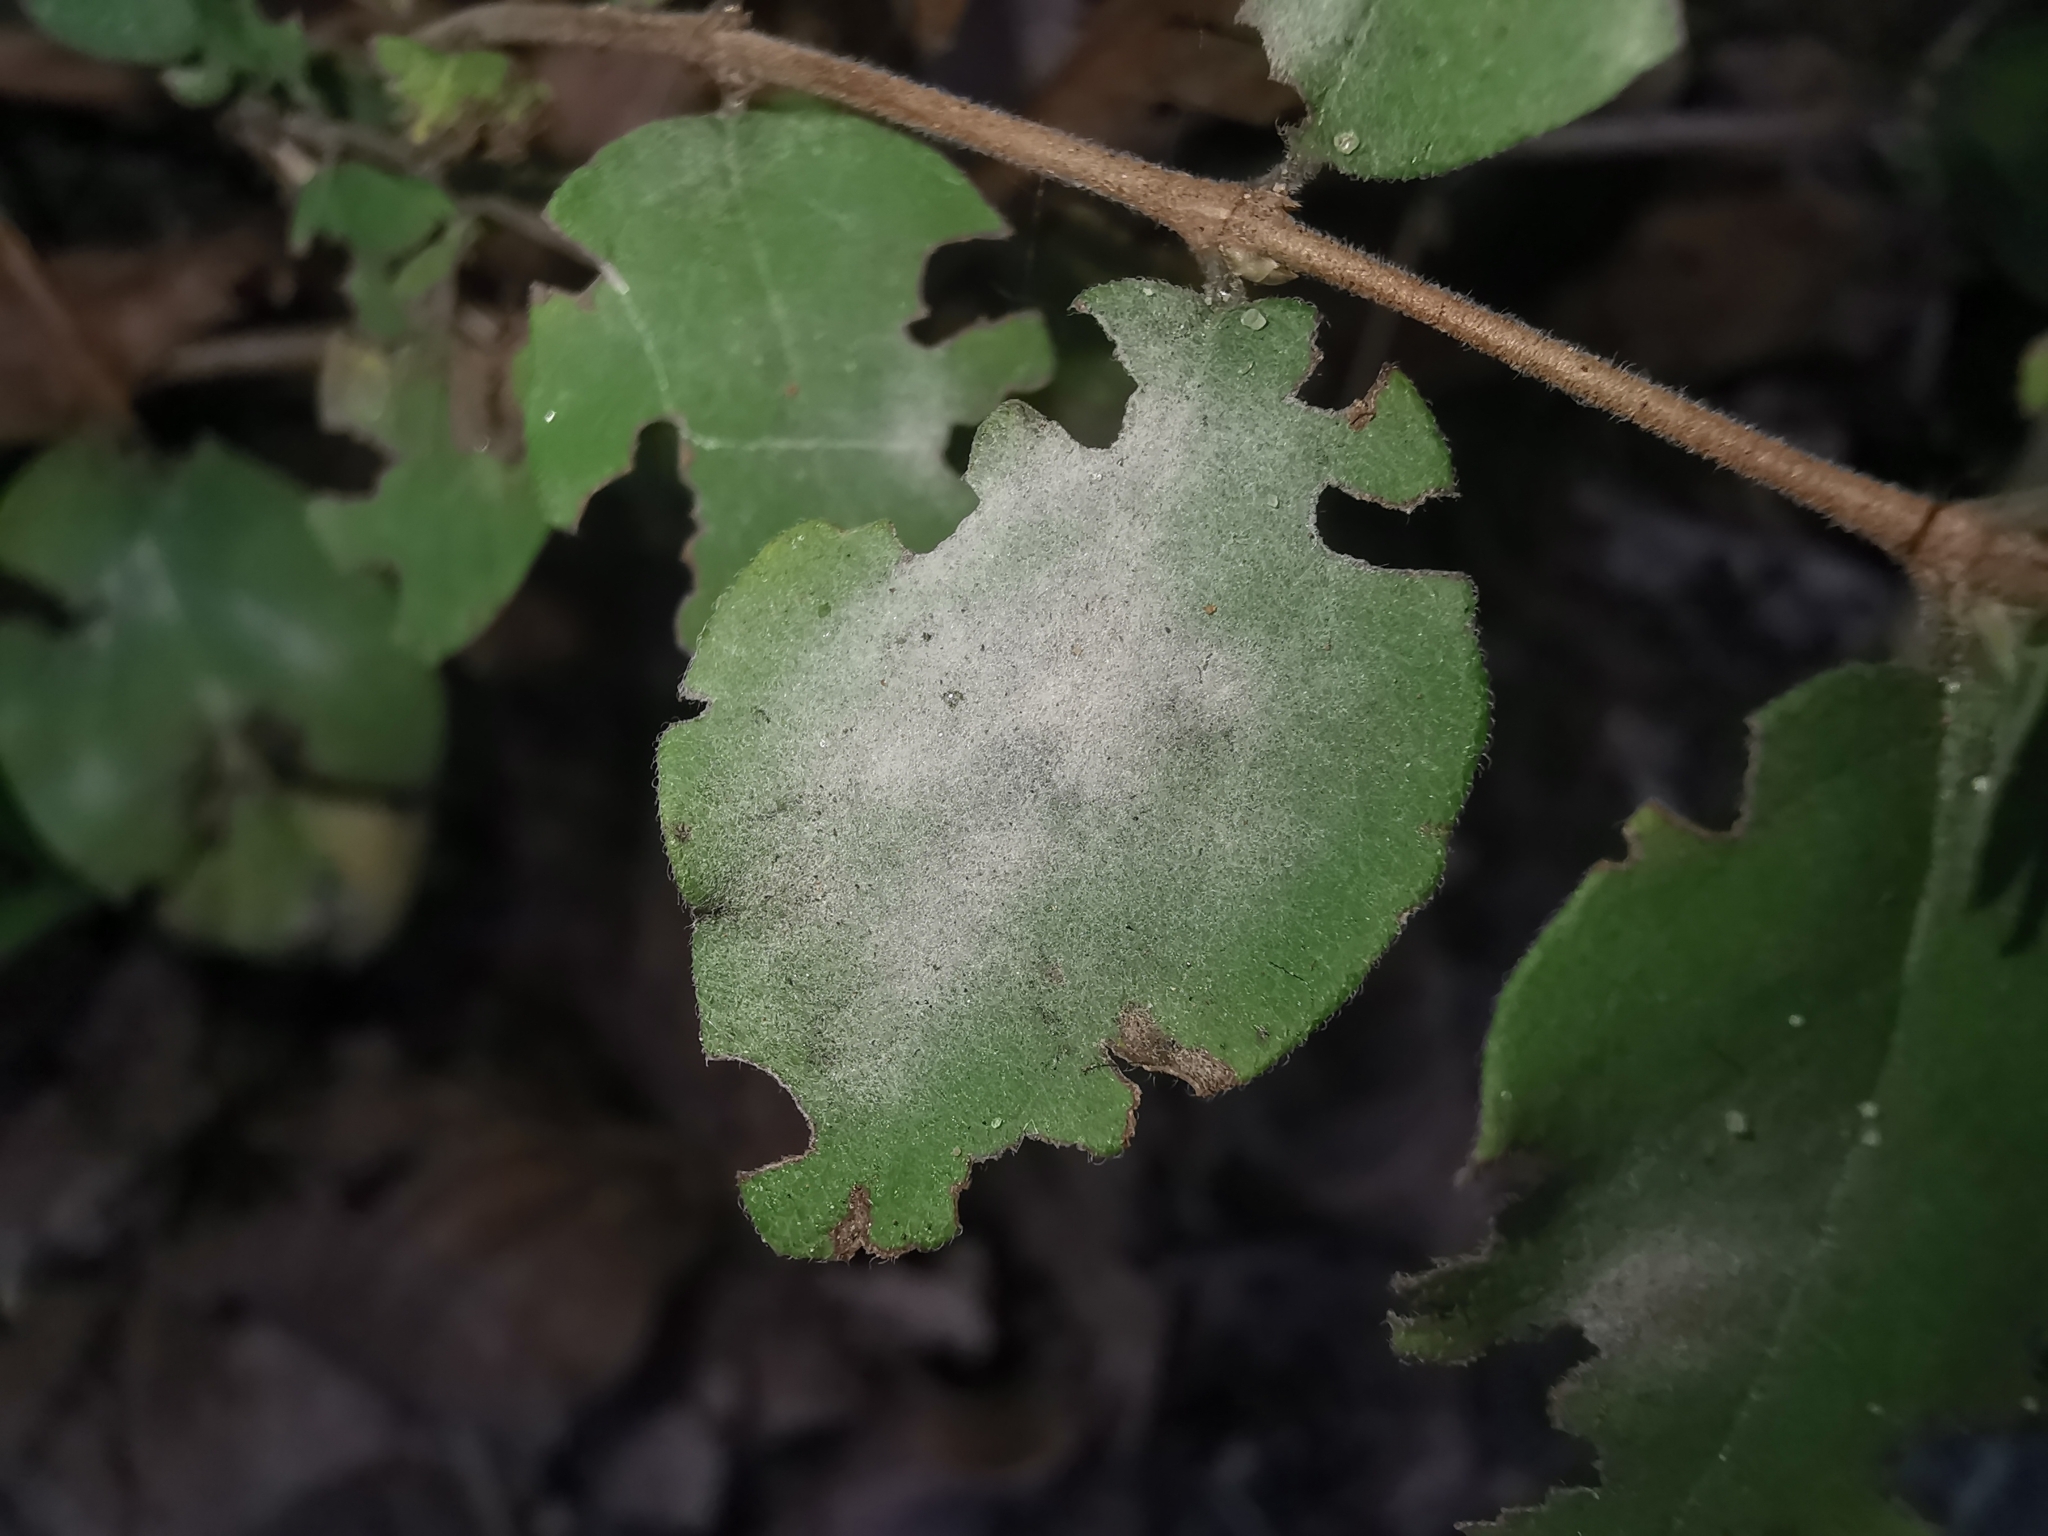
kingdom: Fungi
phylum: Ascomycota
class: Leotiomycetes
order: Helotiales
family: Erysiphaceae
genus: Erysiphe
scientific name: Erysiphe symphoricarpi
